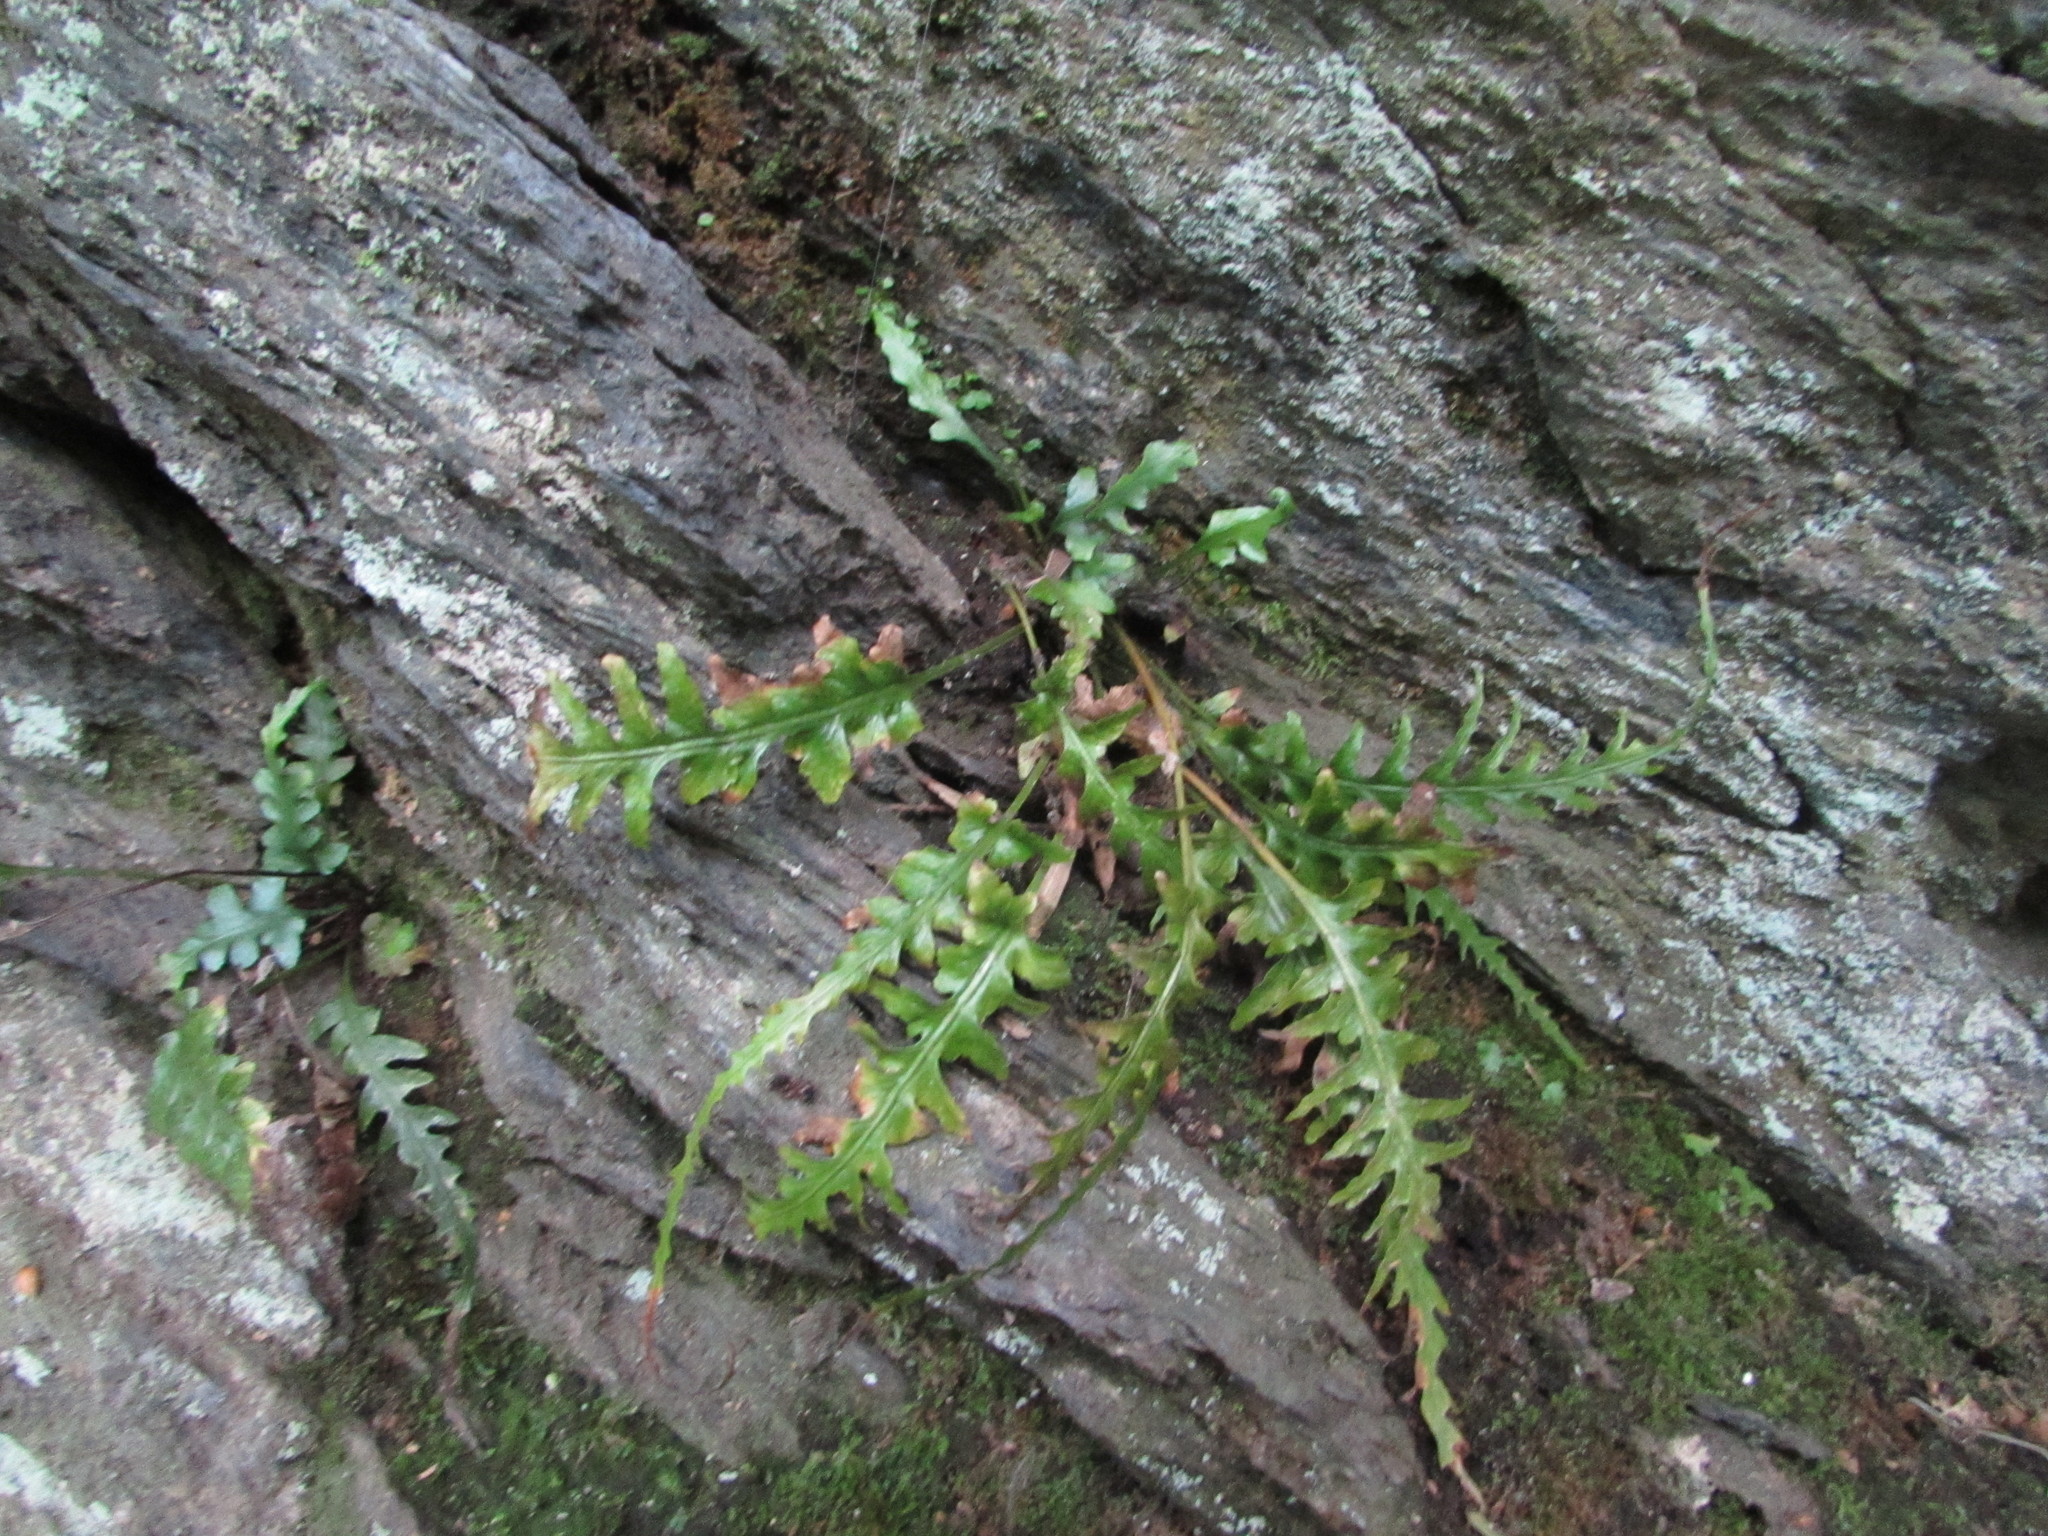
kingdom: Plantae
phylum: Tracheophyta
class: Polypodiopsida
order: Polypodiales
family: Aspleniaceae
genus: Asplenium
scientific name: Asplenium pinnatifidum
